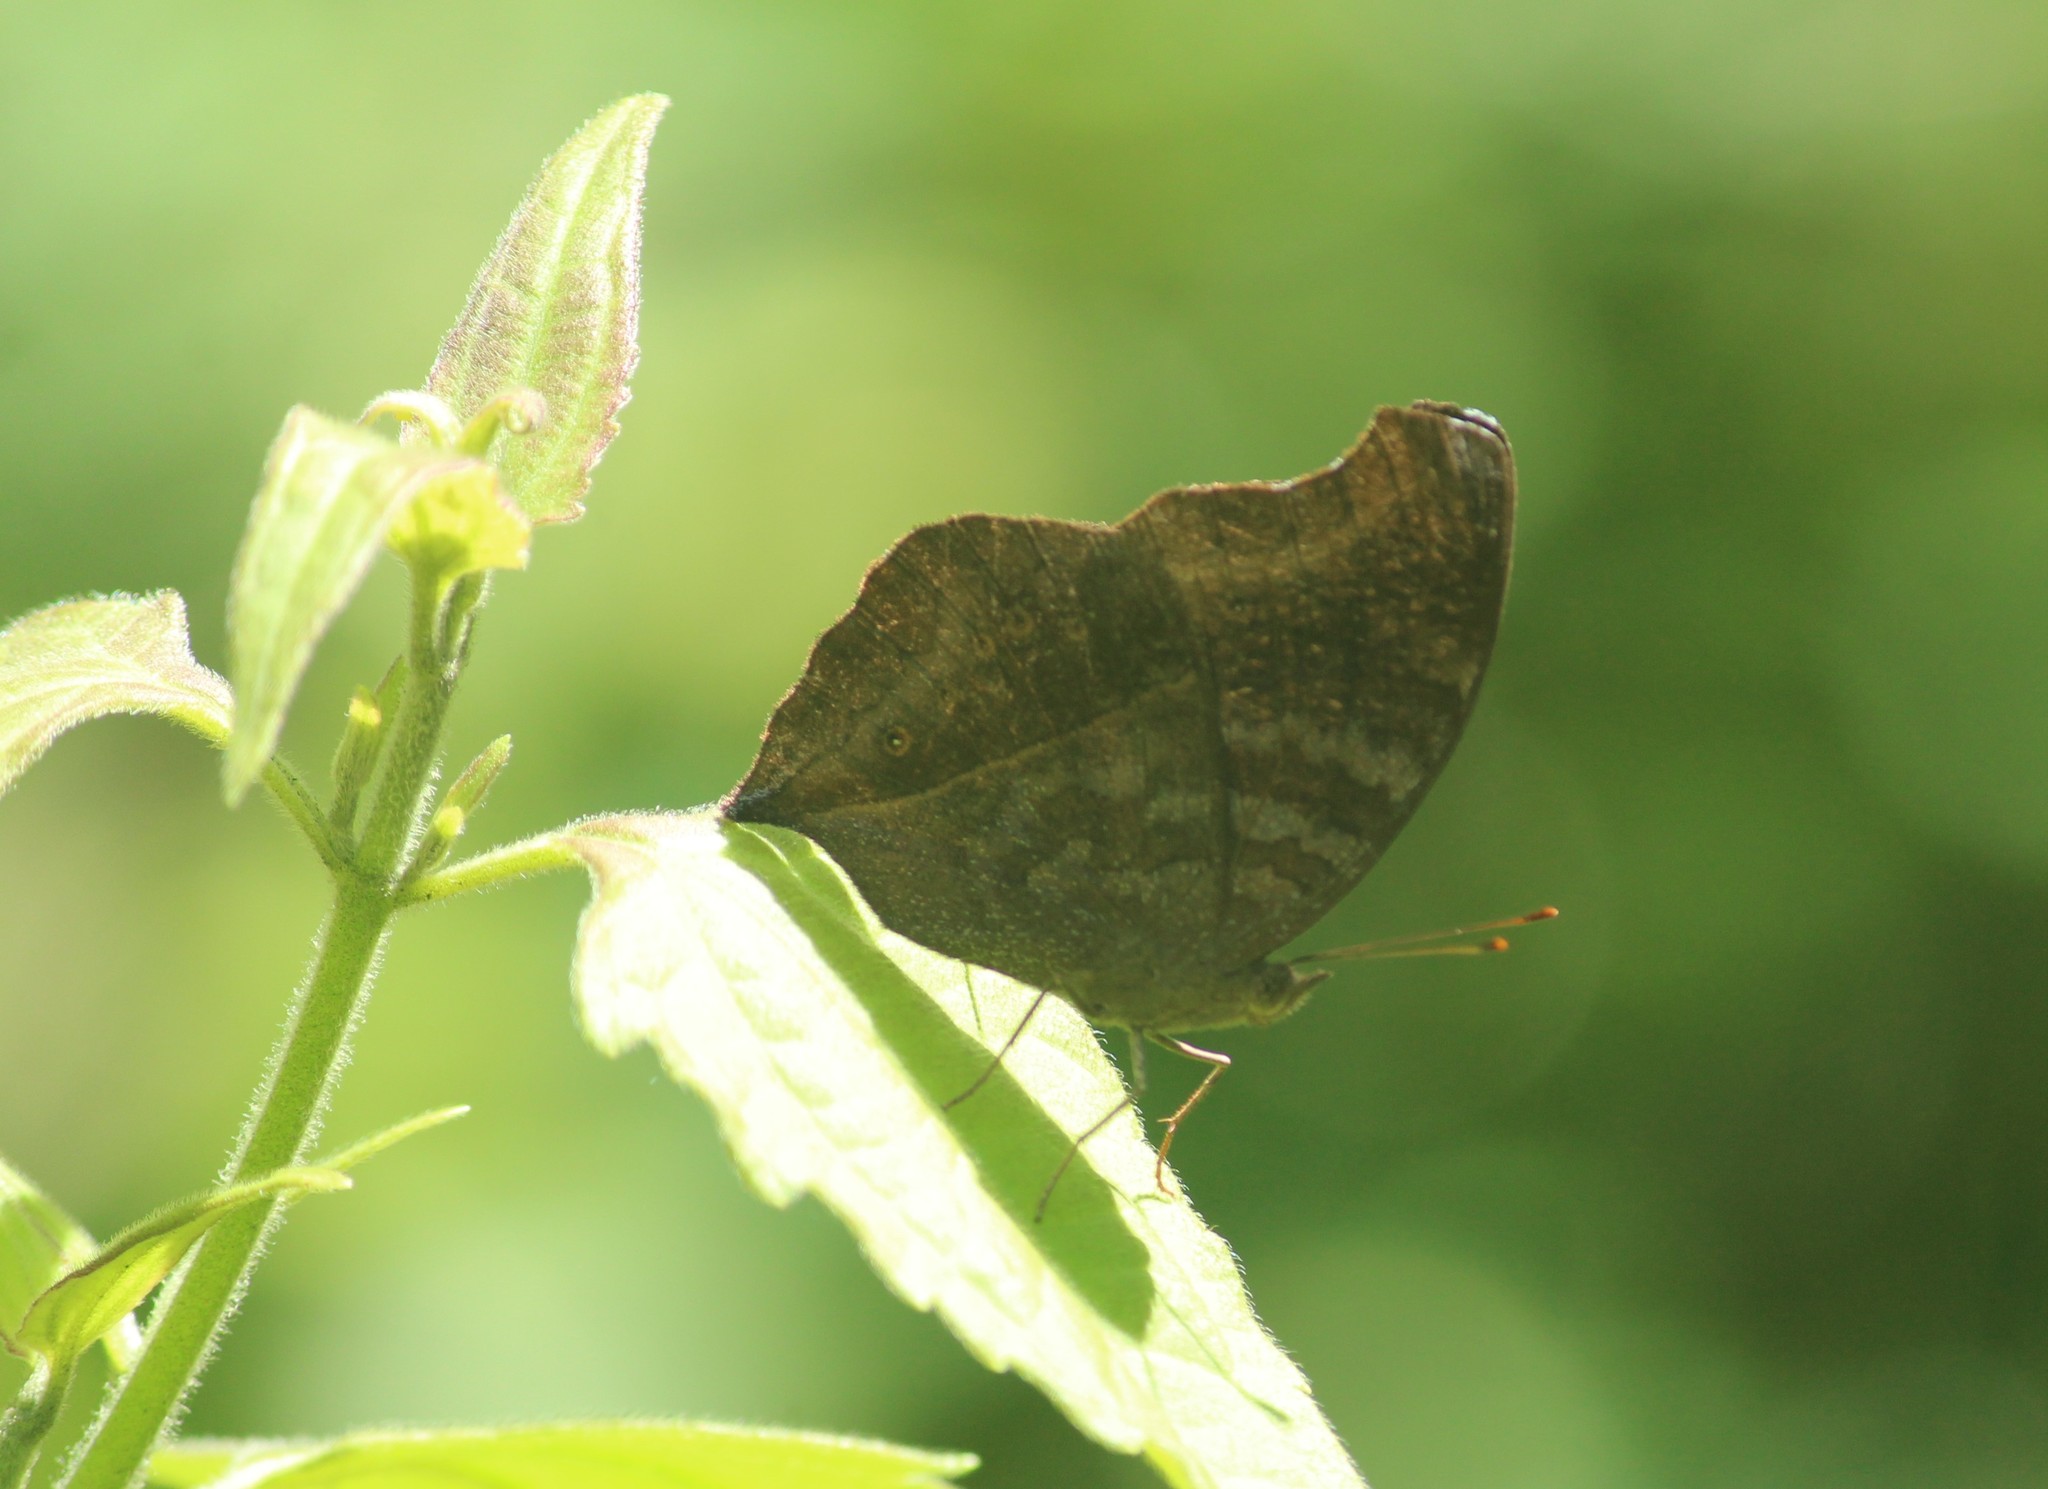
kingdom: Animalia
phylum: Arthropoda
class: Insecta
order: Lepidoptera
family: Nymphalidae
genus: Junonia
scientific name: Junonia iphita
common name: Chocolate pansy
